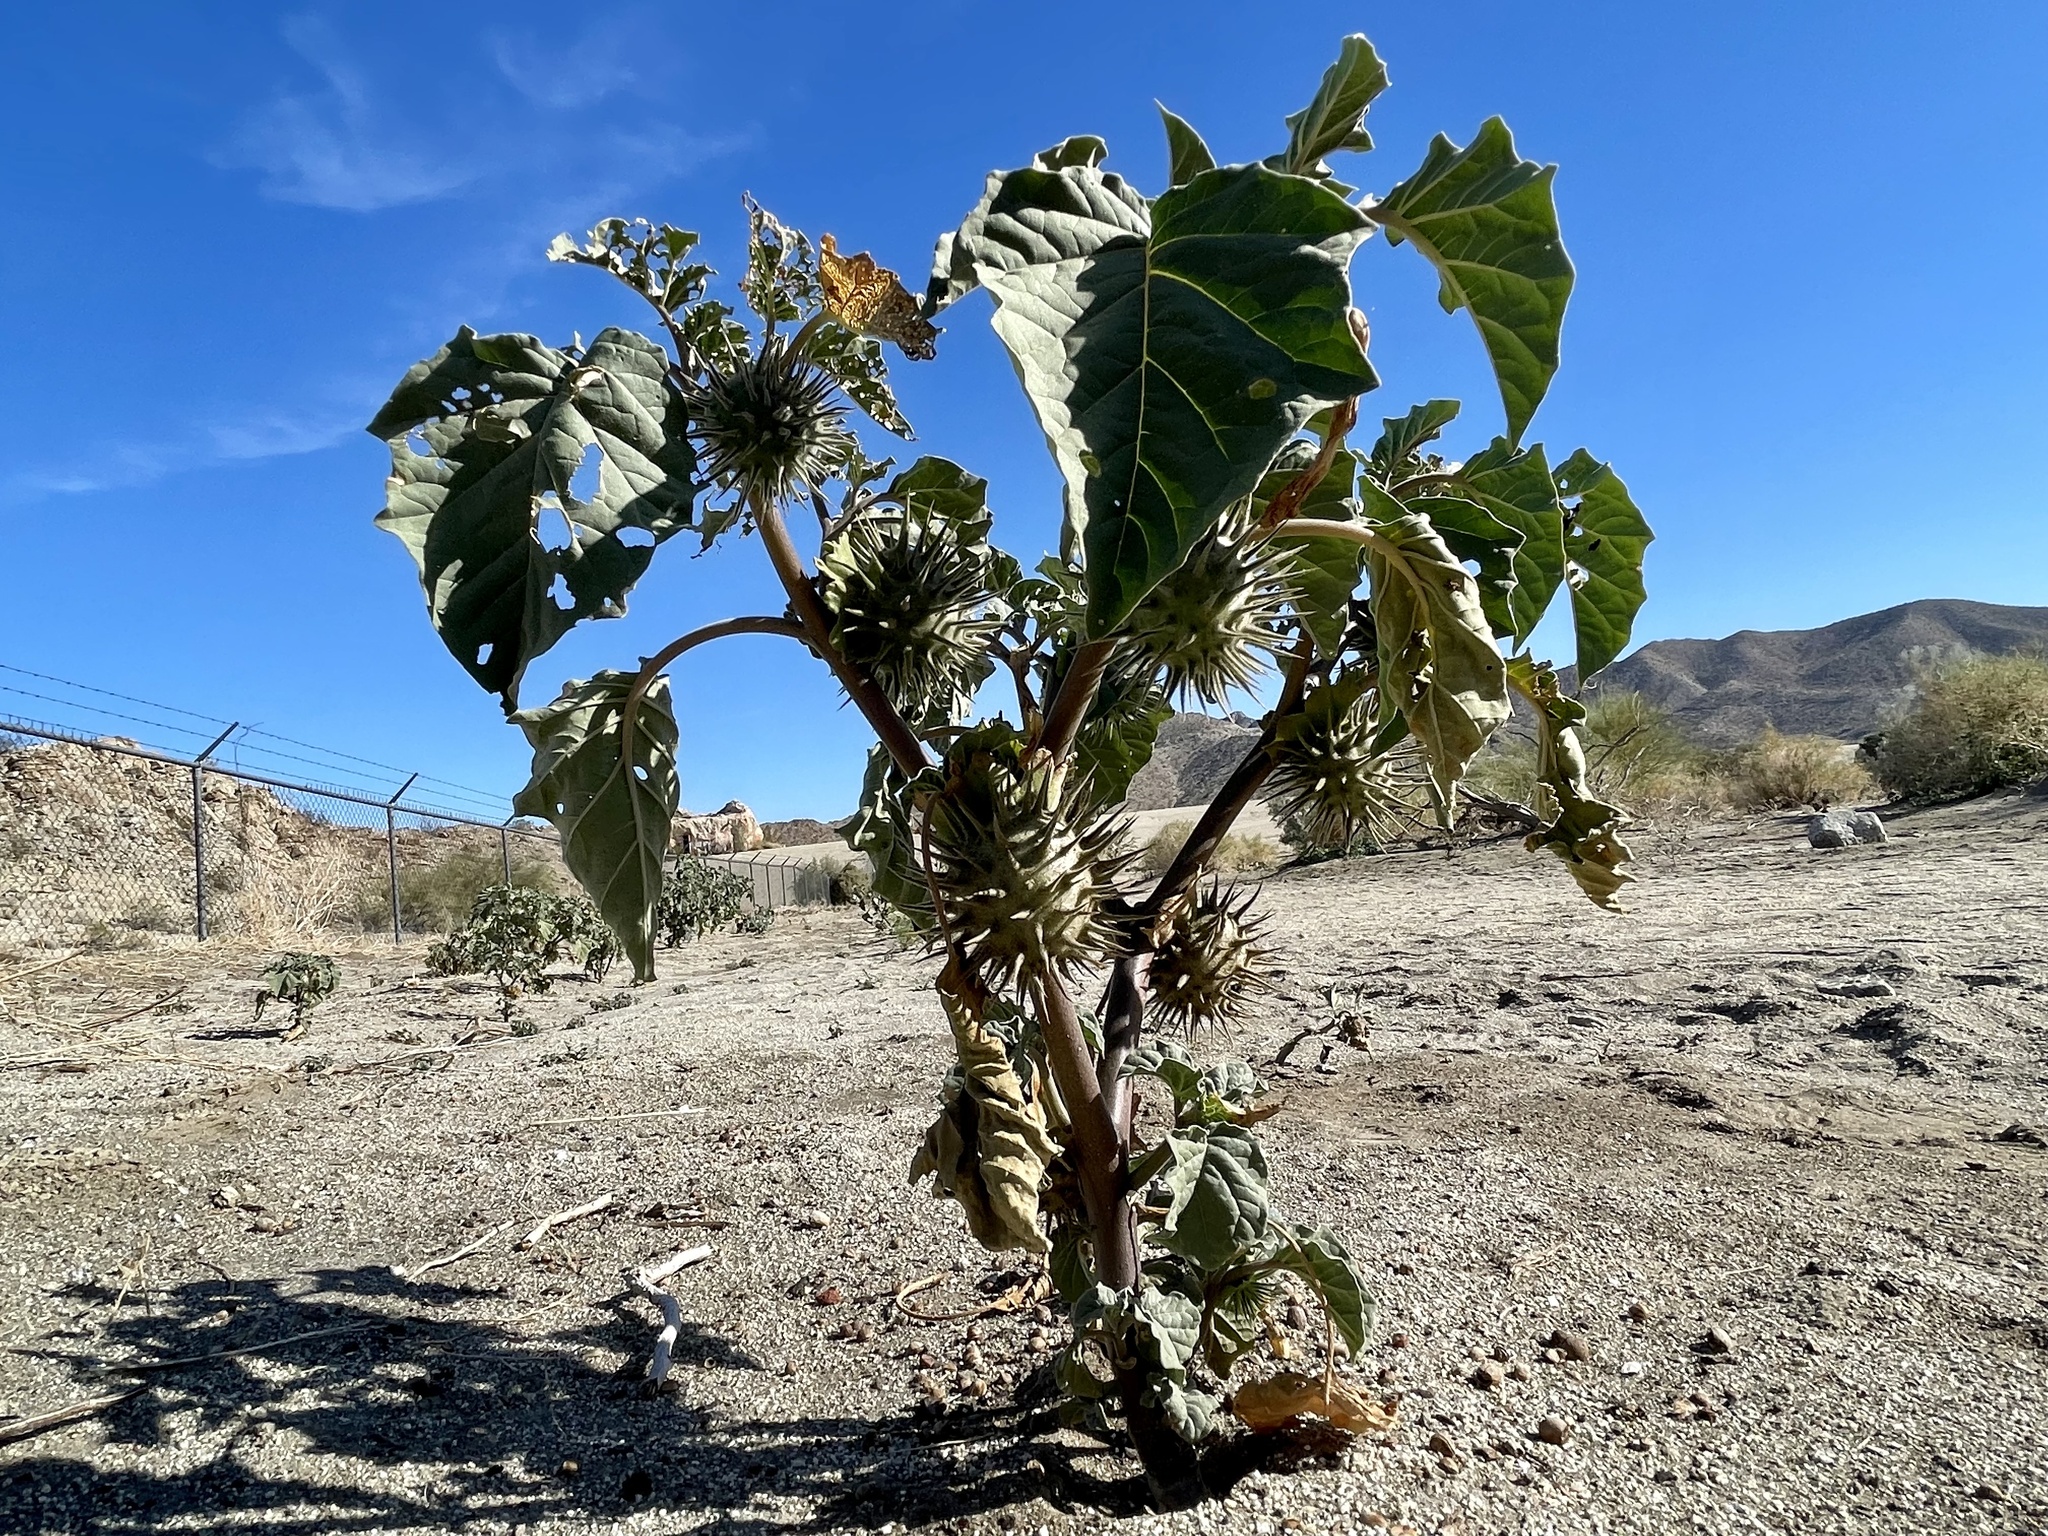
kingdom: Plantae
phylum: Tracheophyta
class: Magnoliopsida
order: Solanales
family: Solanaceae
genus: Datura
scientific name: Datura discolor
